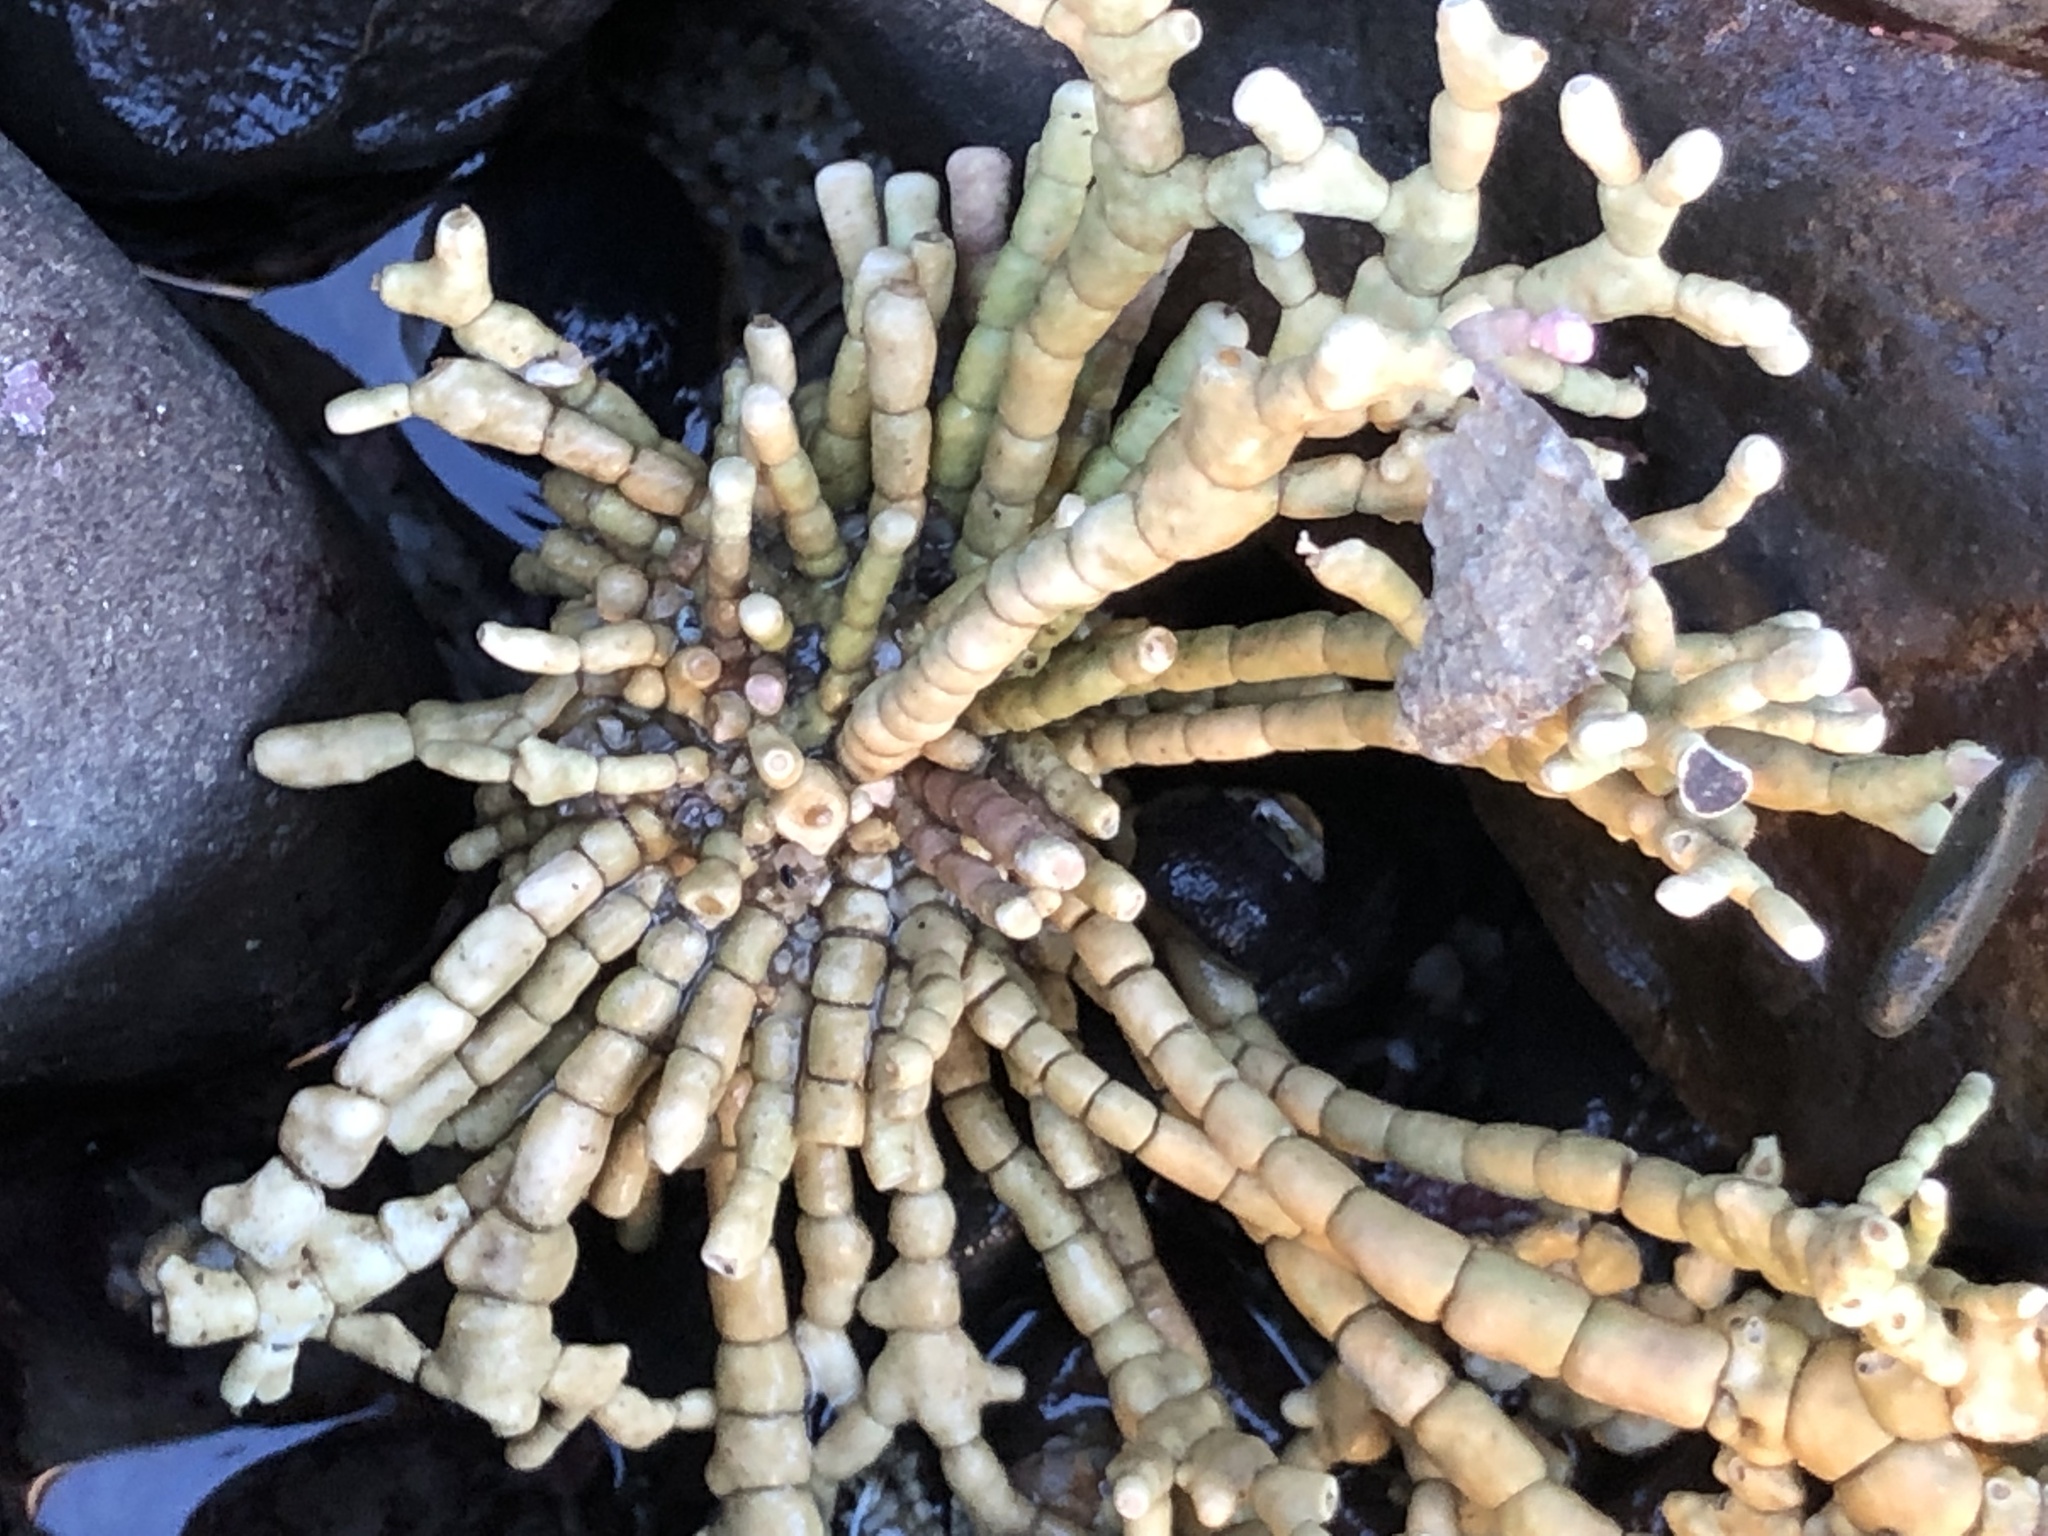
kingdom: Plantae
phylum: Rhodophyta
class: Florideophyceae
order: Corallinales
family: Corallinaceae
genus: Calliarthron
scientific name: Calliarthron tuberculosum
